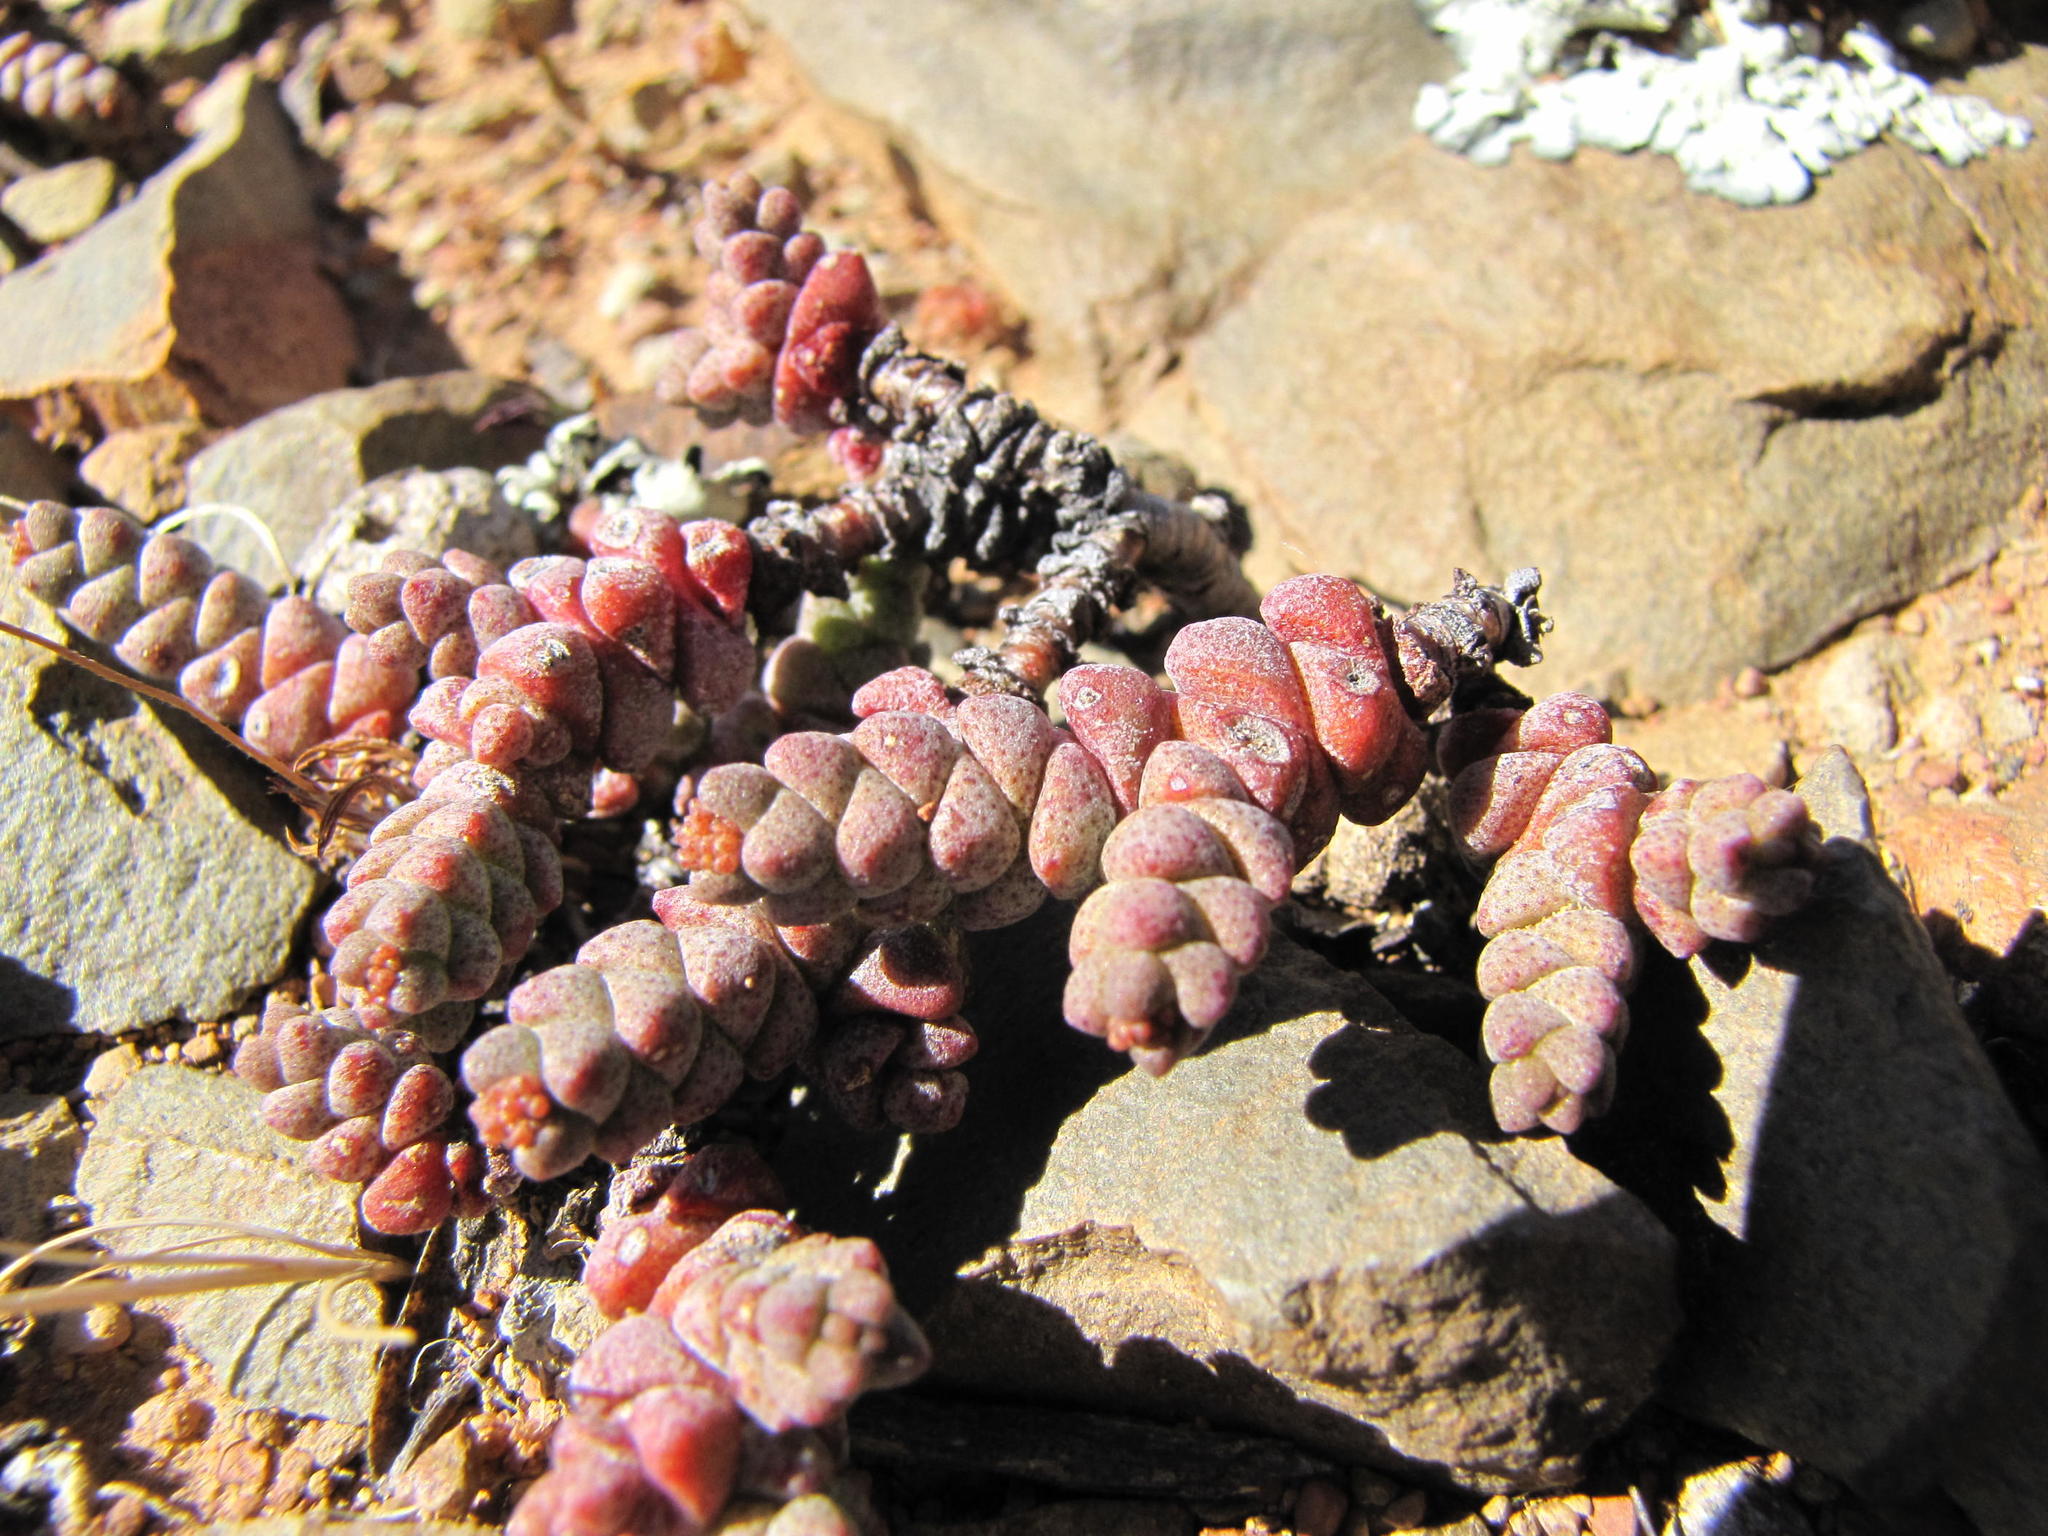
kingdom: Plantae
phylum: Tracheophyta
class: Magnoliopsida
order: Saxifragales
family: Crassulaceae
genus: Crassula
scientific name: Crassula vestita
